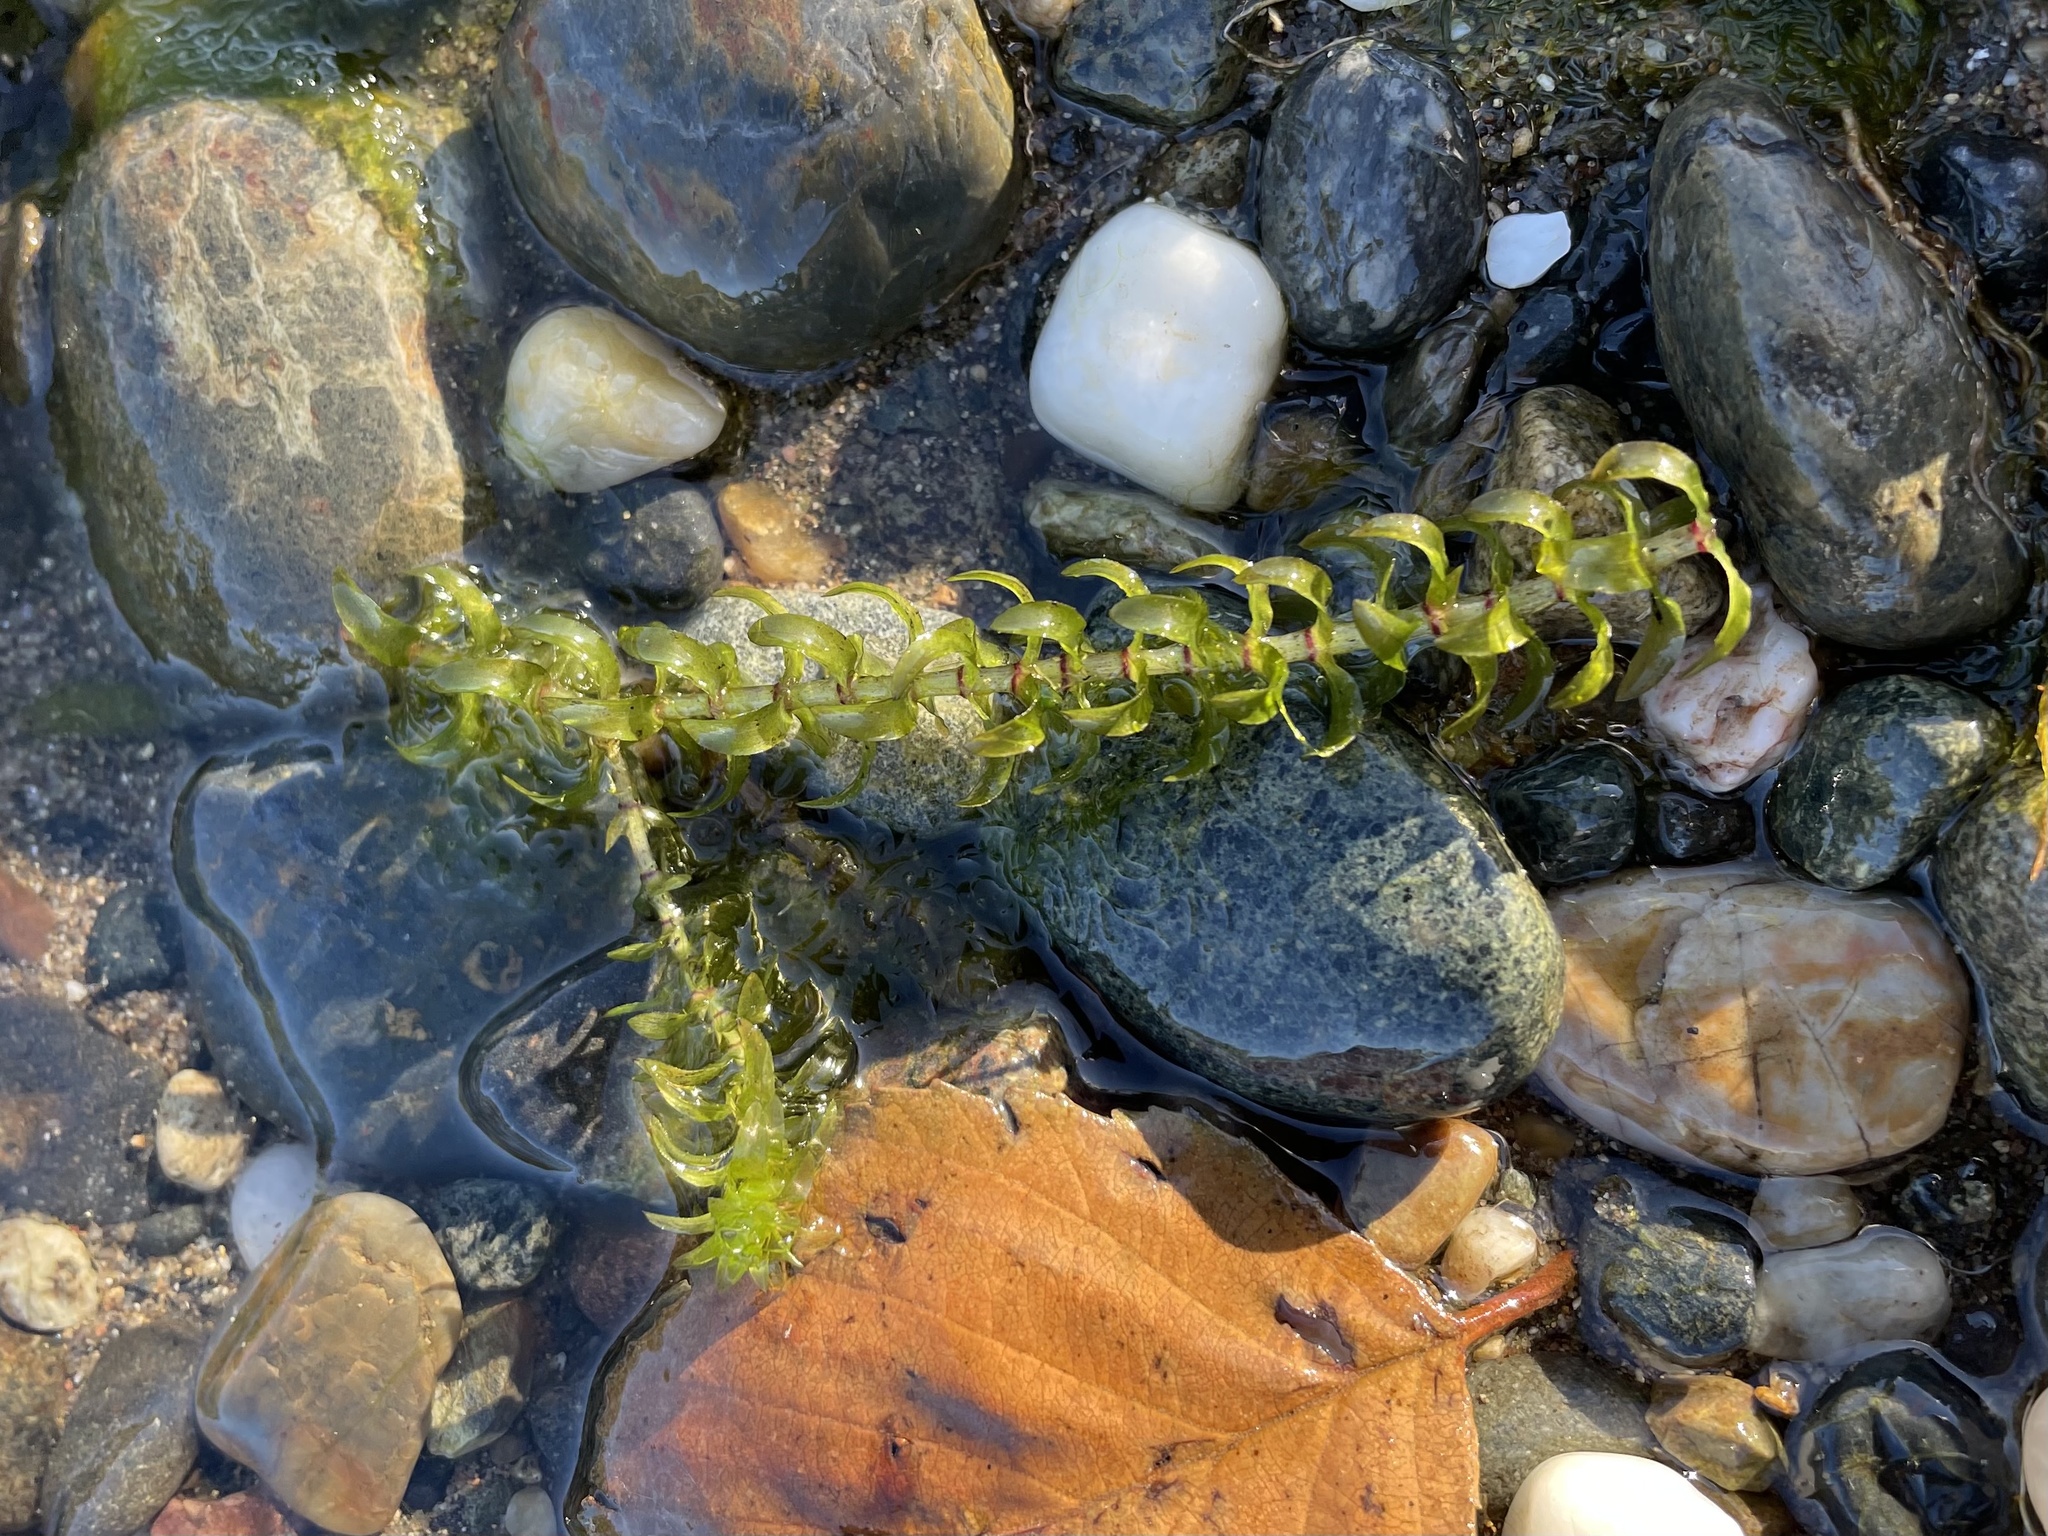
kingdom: Plantae
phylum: Tracheophyta
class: Liliopsida
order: Alismatales
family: Hydrocharitaceae
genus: Elodea
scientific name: Elodea canadensis
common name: Canadian waterweed
